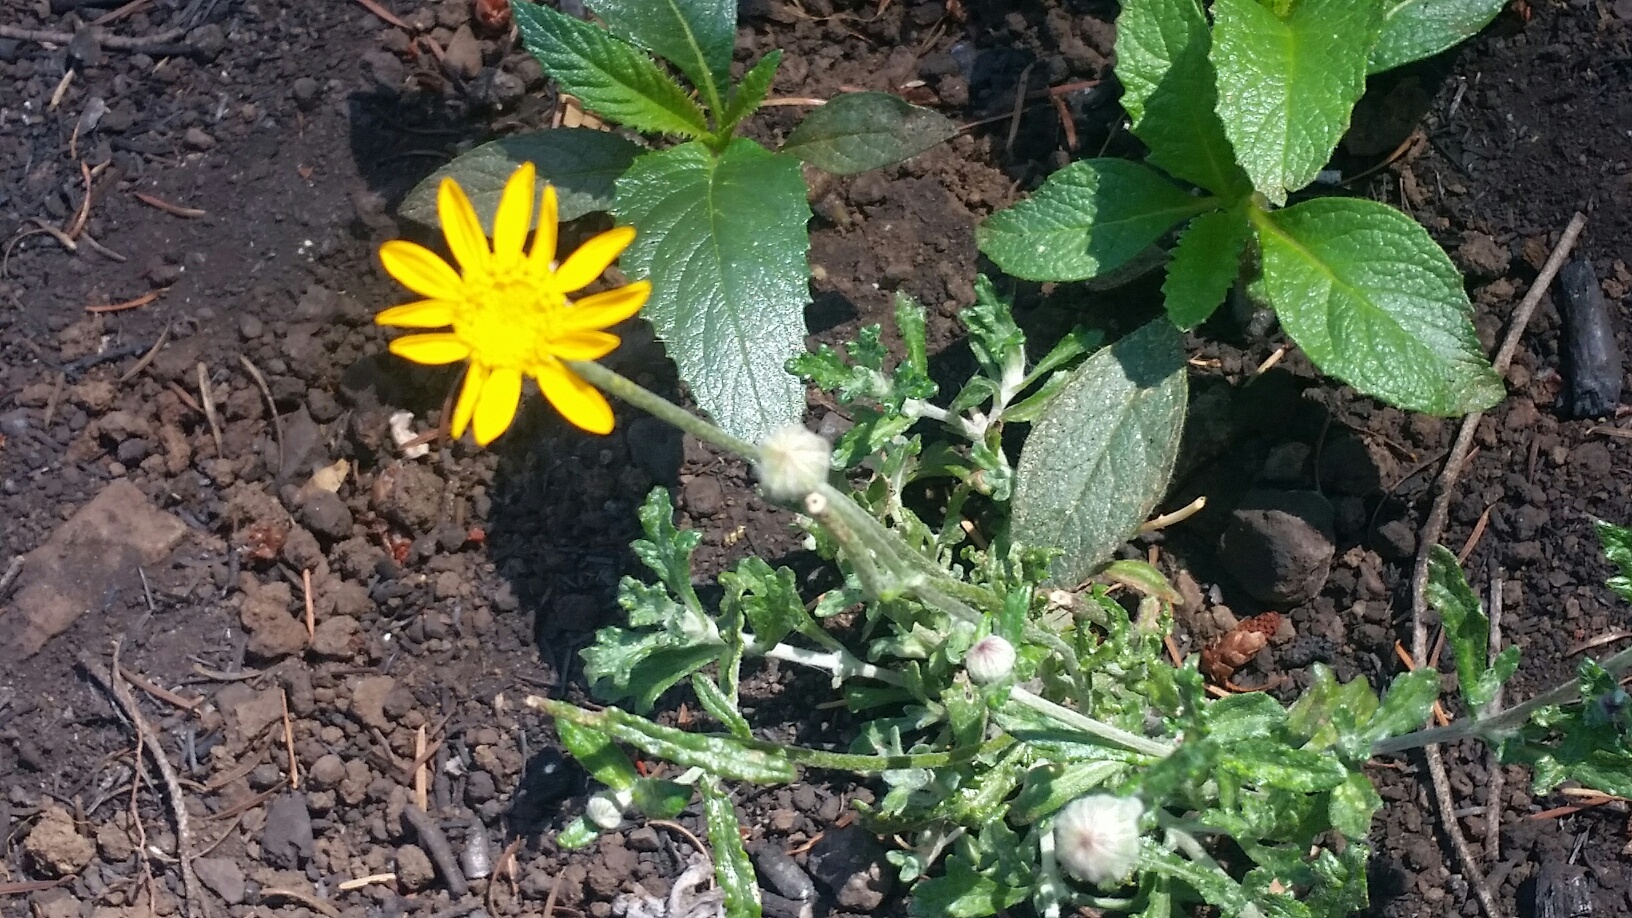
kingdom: Plantae
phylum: Tracheophyta
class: Magnoliopsida
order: Asterales
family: Asteraceae
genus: Eriophyllum
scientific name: Eriophyllum lanatum
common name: Common woolly-sunflower
